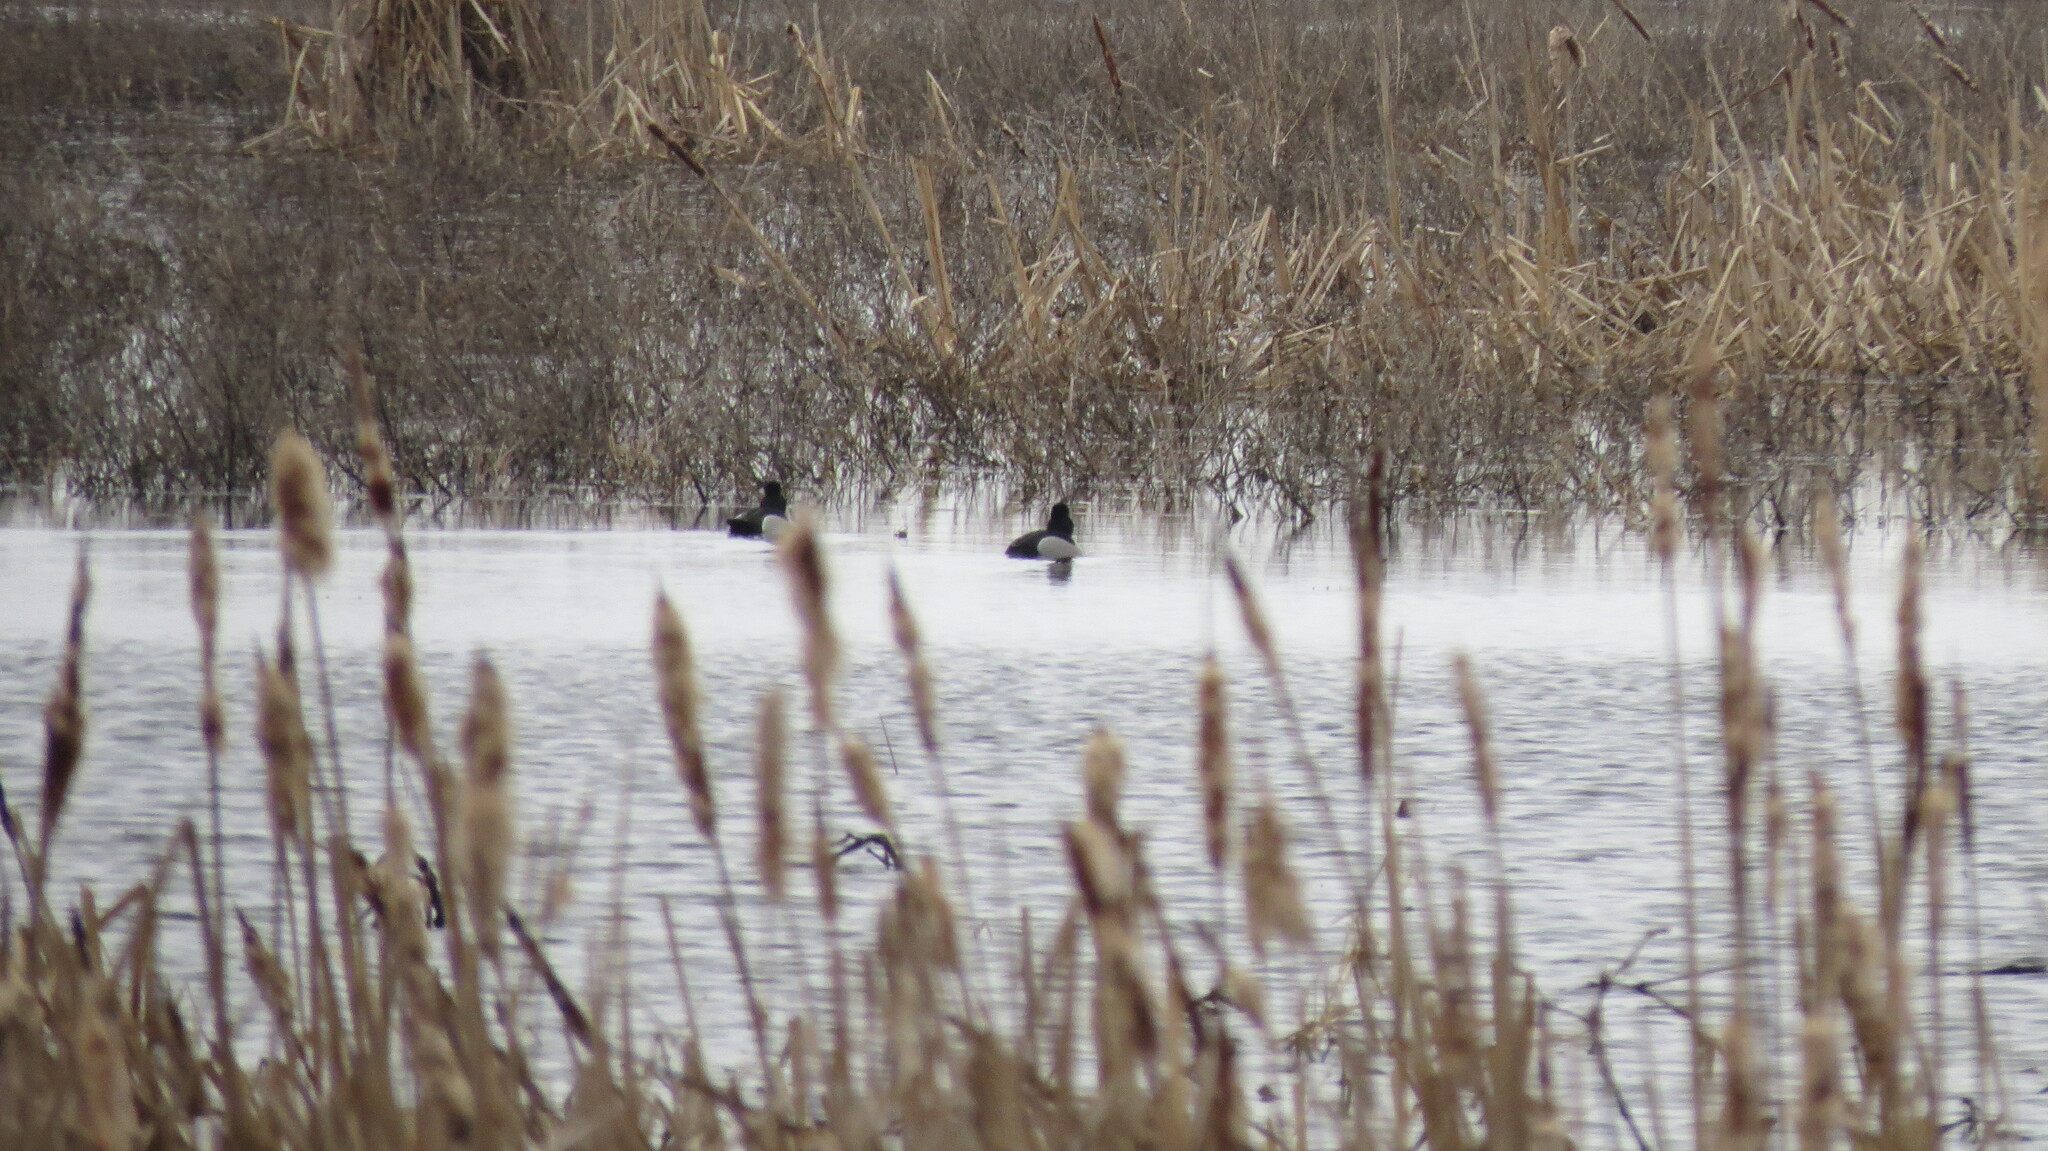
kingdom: Animalia
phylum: Chordata
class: Aves
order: Anseriformes
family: Anatidae
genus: Aythya
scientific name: Aythya collaris
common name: Ring-necked duck
